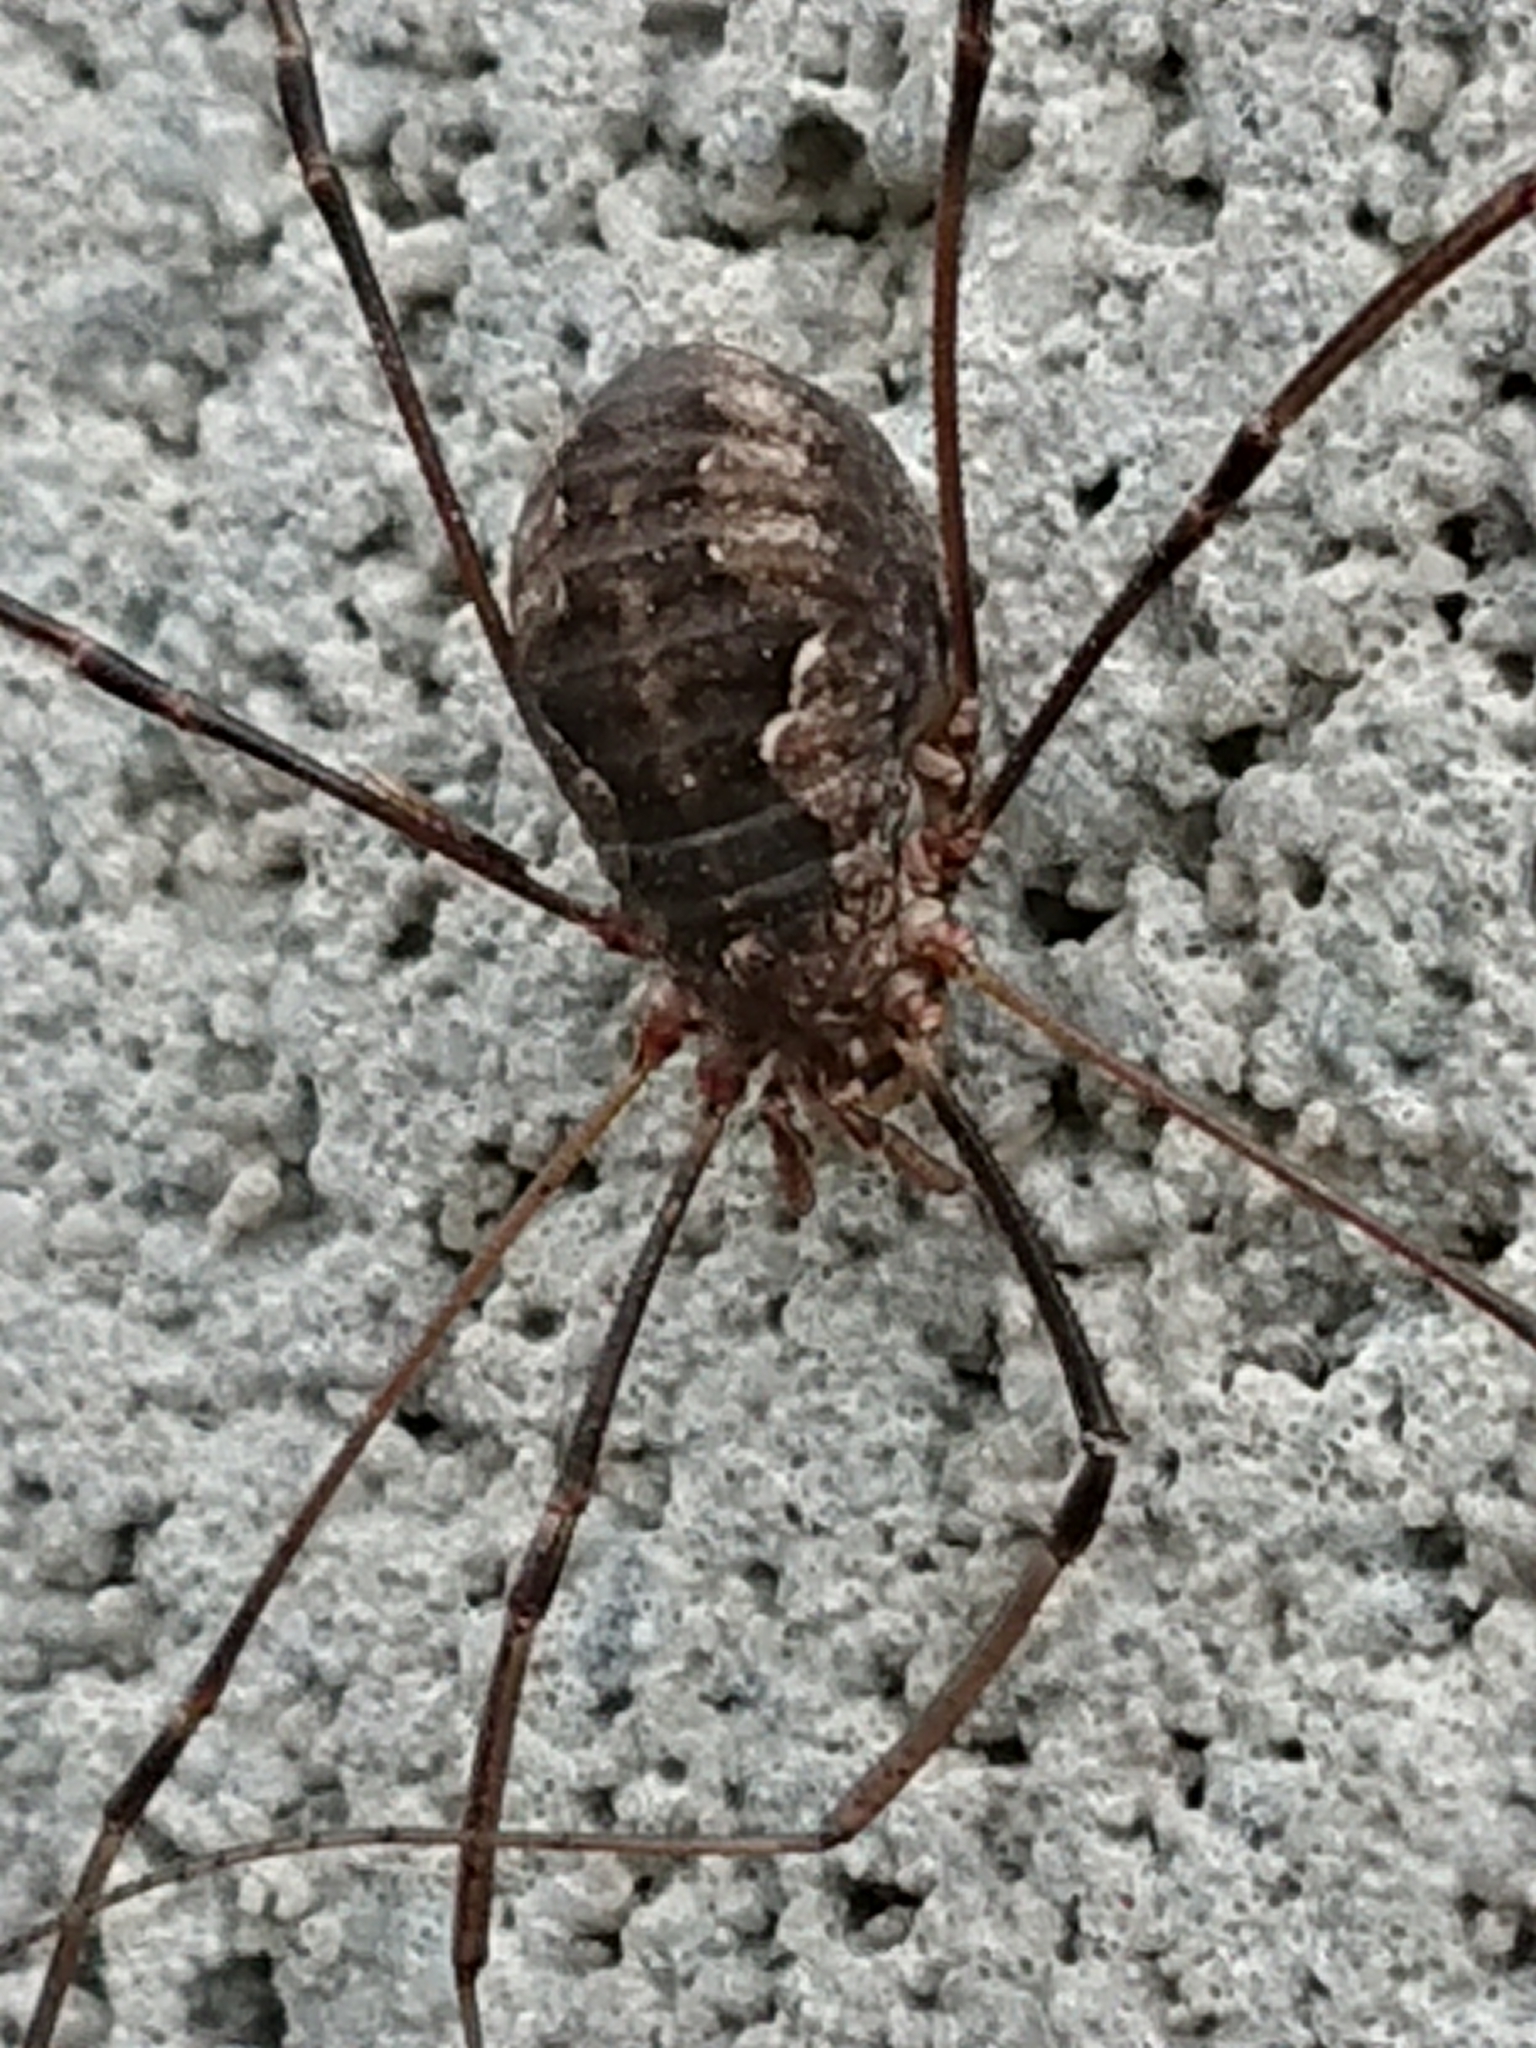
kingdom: Animalia
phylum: Arthropoda
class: Arachnida
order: Opiliones
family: Phalangiidae
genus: Phalangium
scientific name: Phalangium opilio
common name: Daddy longleg
